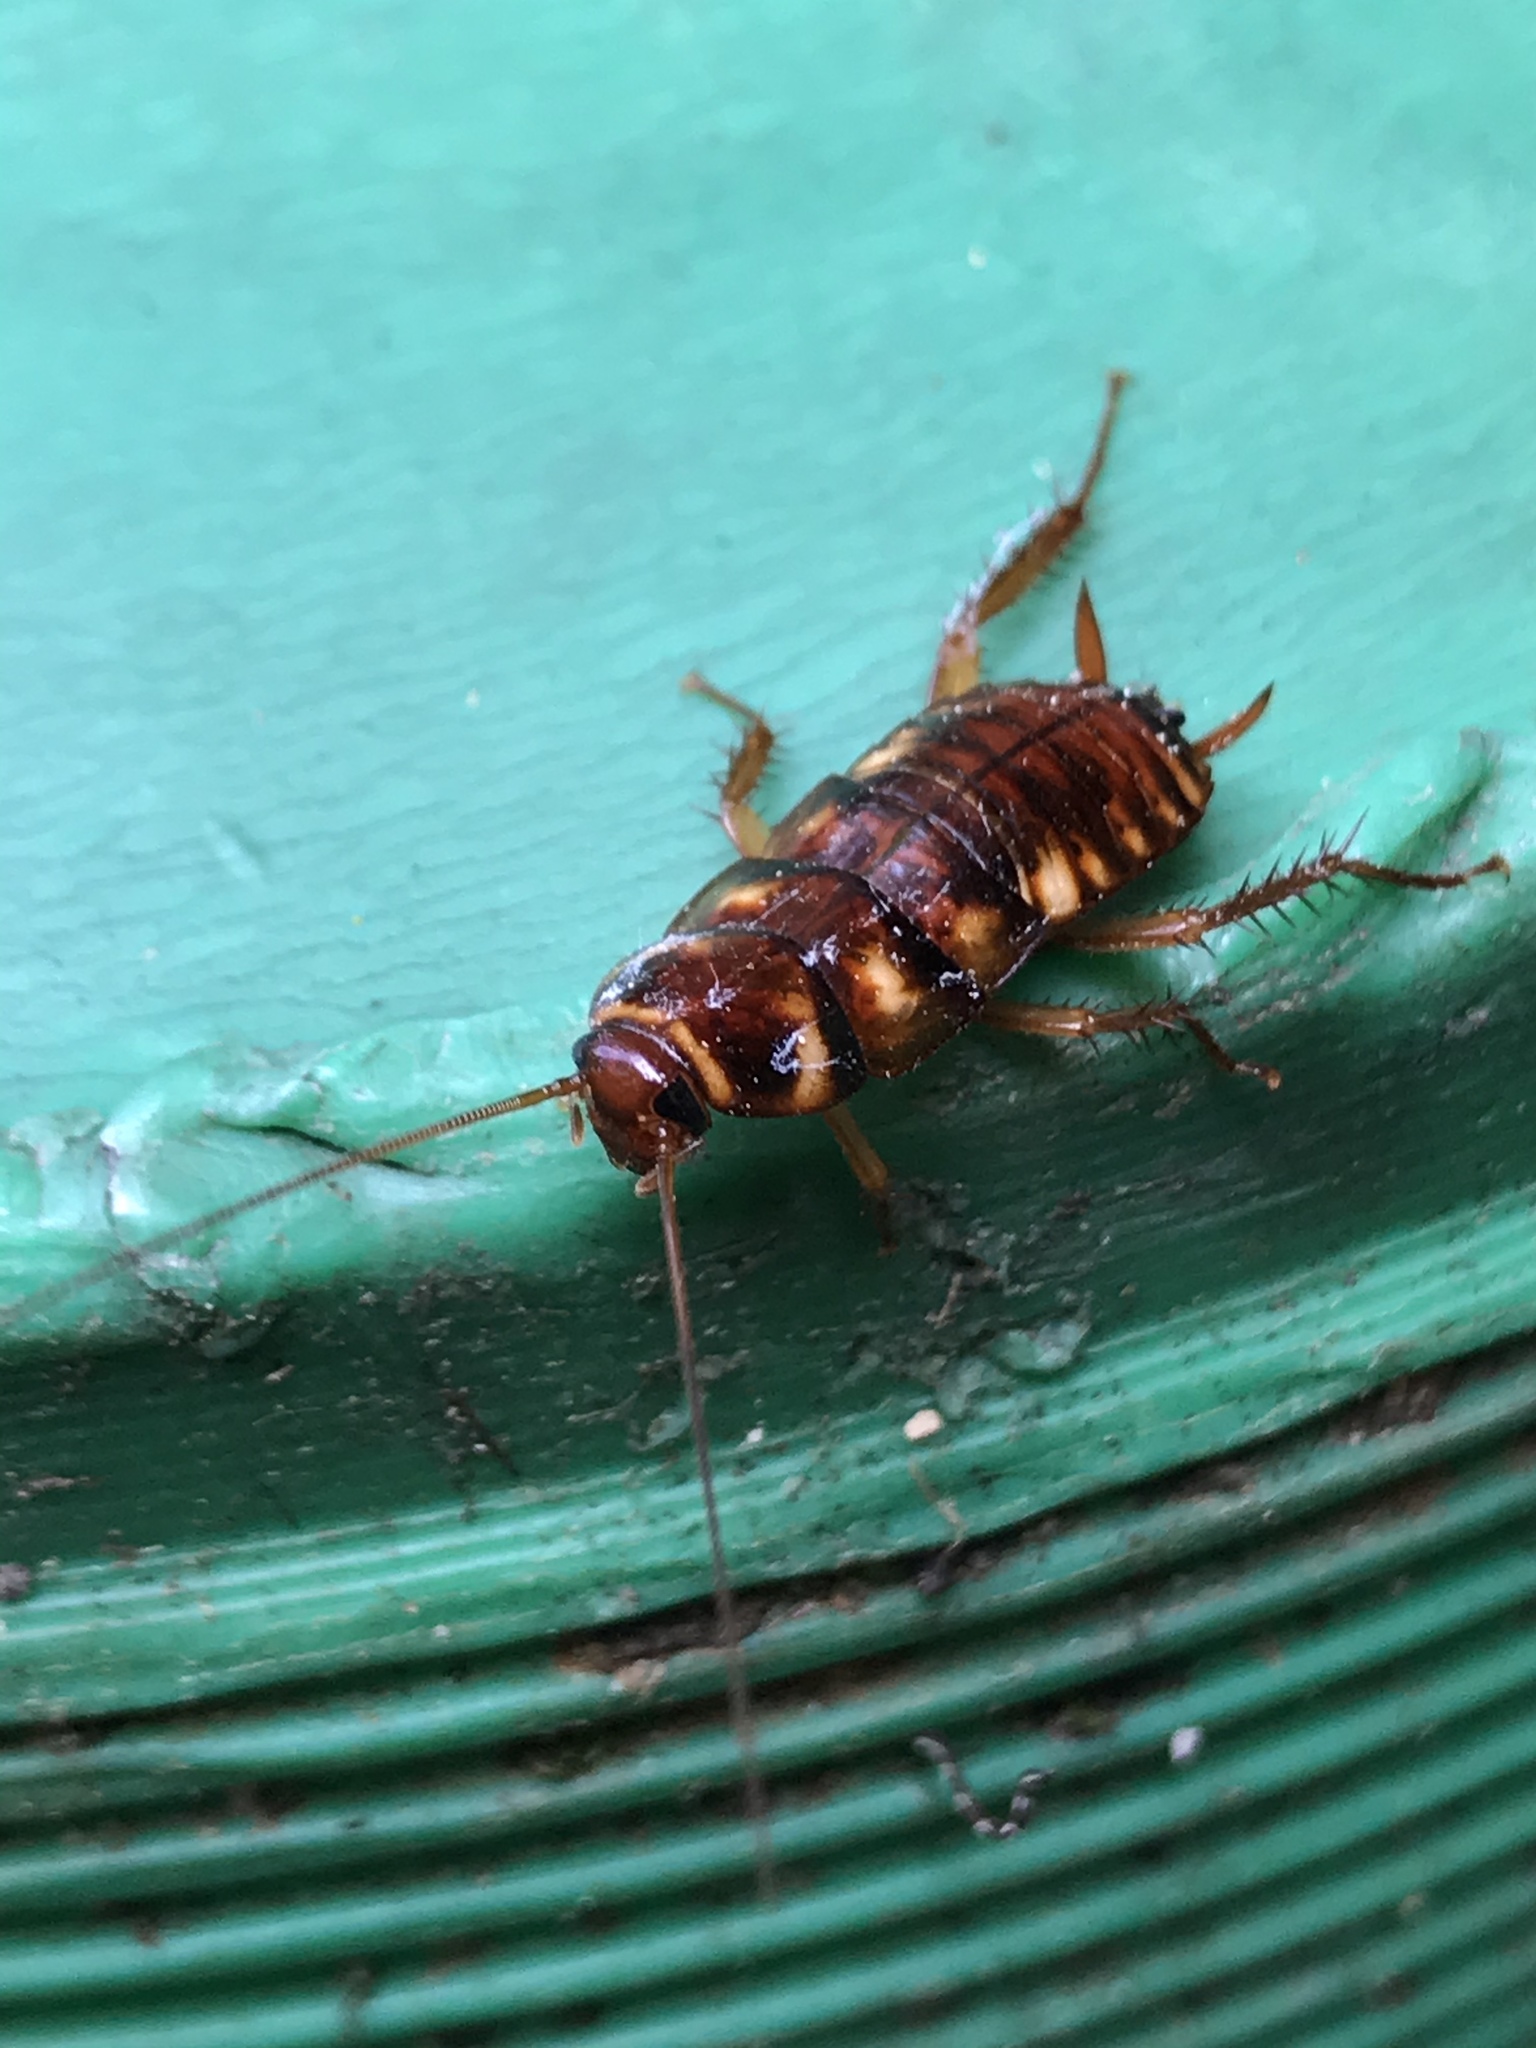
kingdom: Animalia
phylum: Arthropoda
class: Insecta
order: Blattodea
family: Blattidae
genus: Periplaneta
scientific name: Periplaneta australasiae
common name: Australian cockroach
